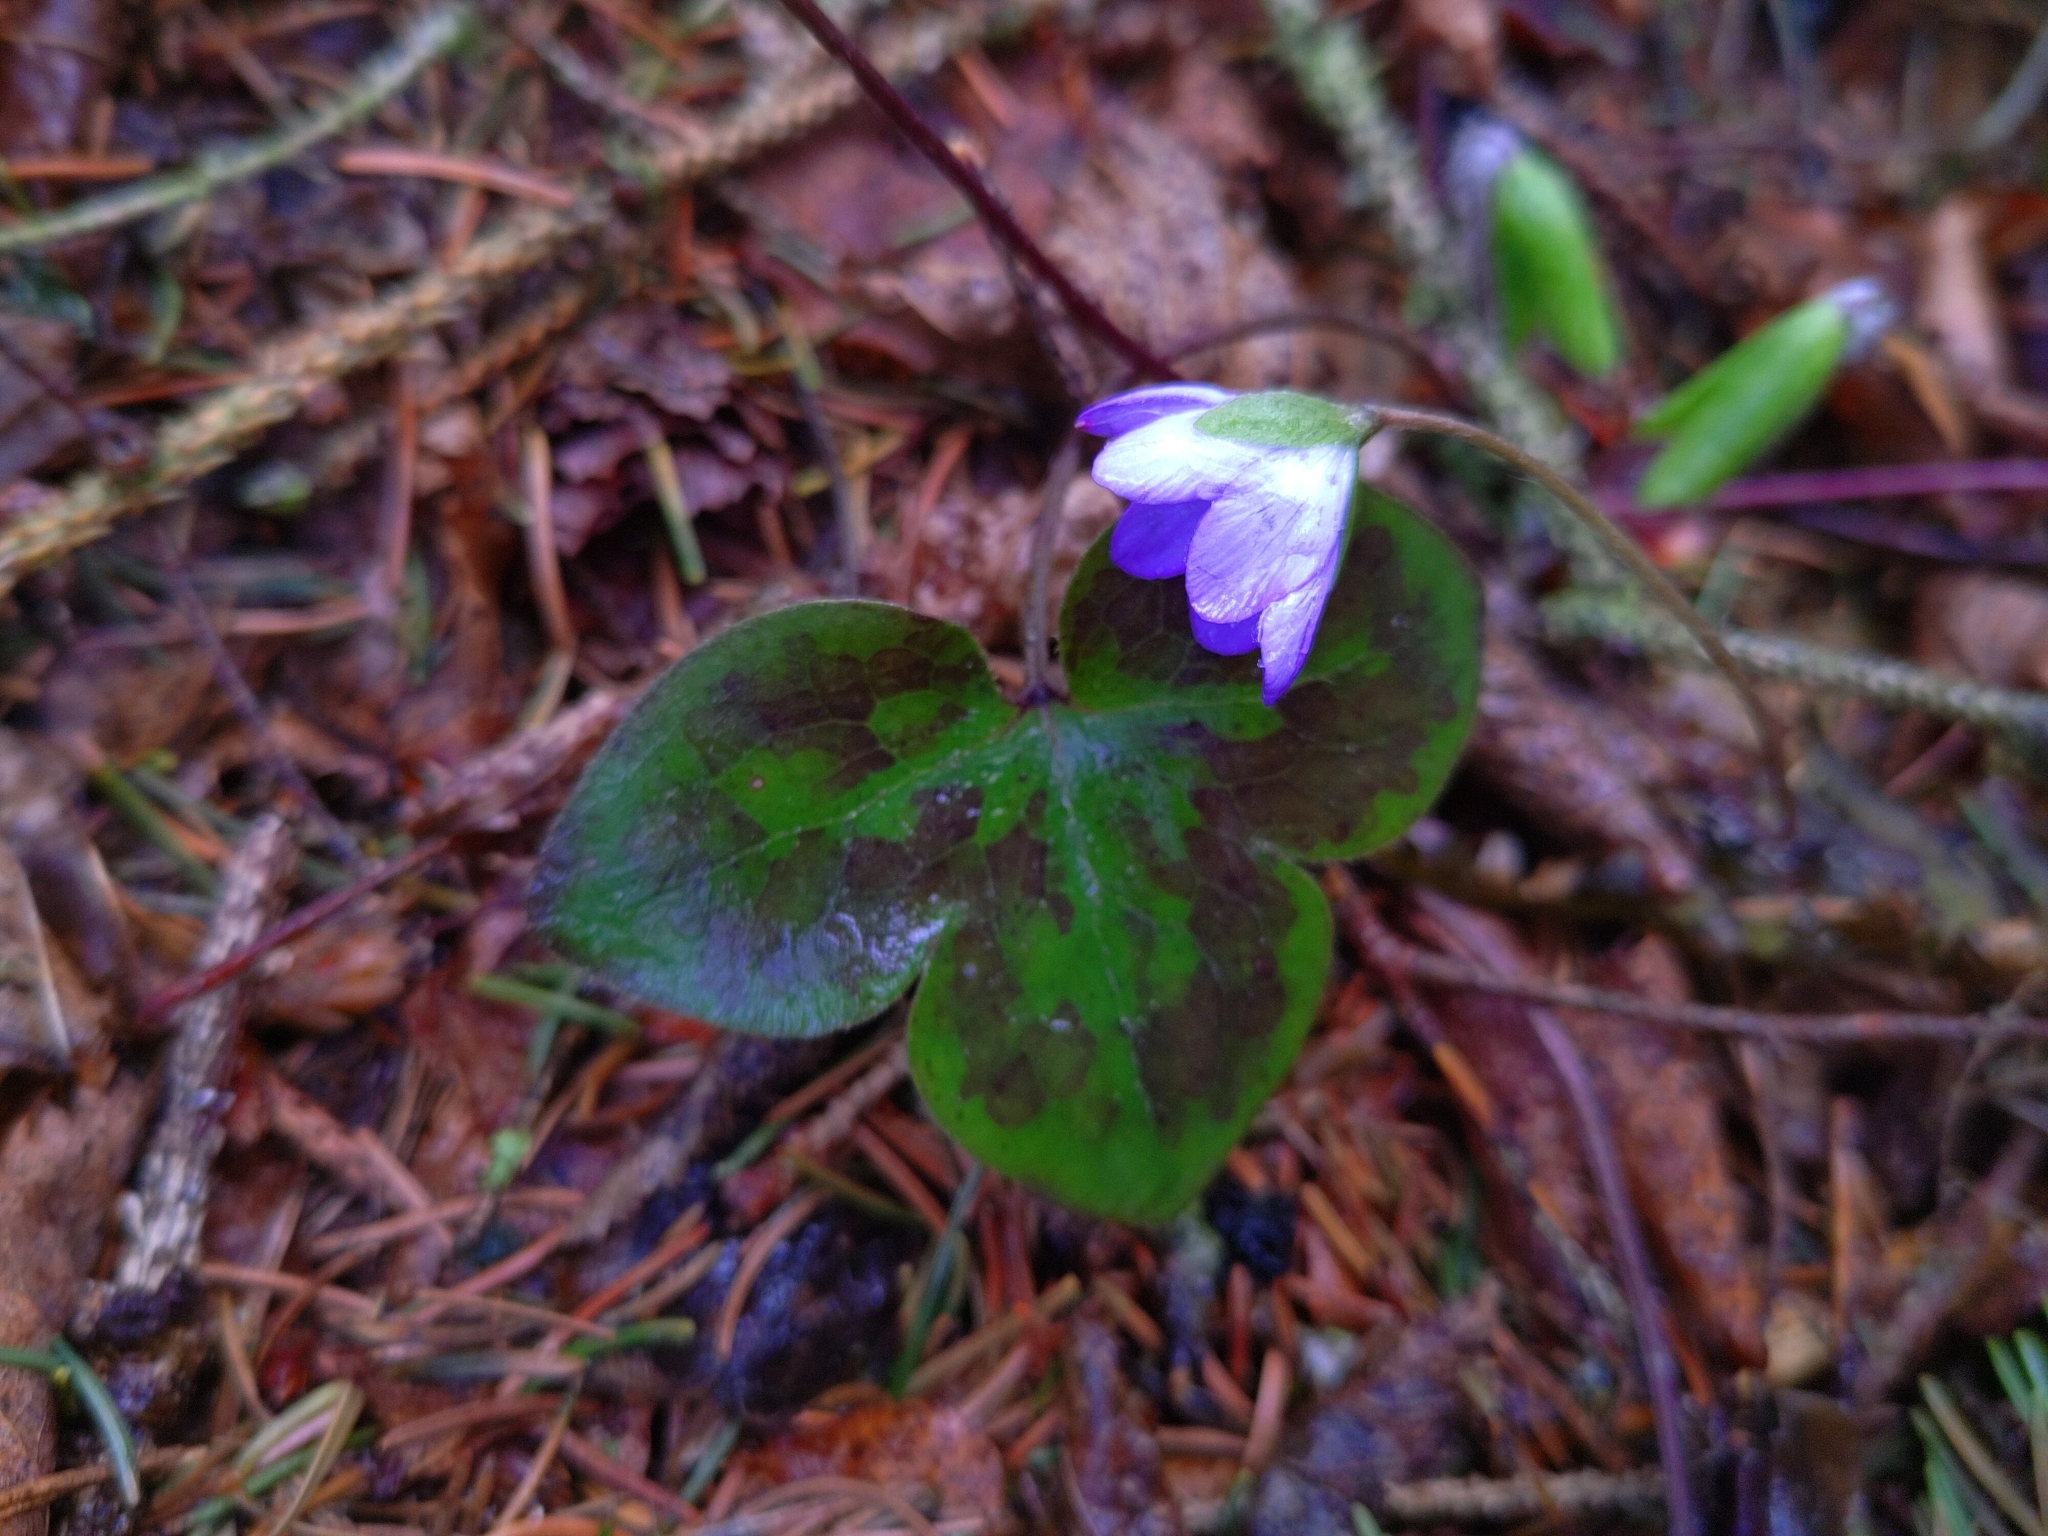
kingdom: Plantae
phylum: Tracheophyta
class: Magnoliopsida
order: Ranunculales
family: Ranunculaceae
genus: Hepatica
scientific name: Hepatica nobilis
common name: Liverleaf
